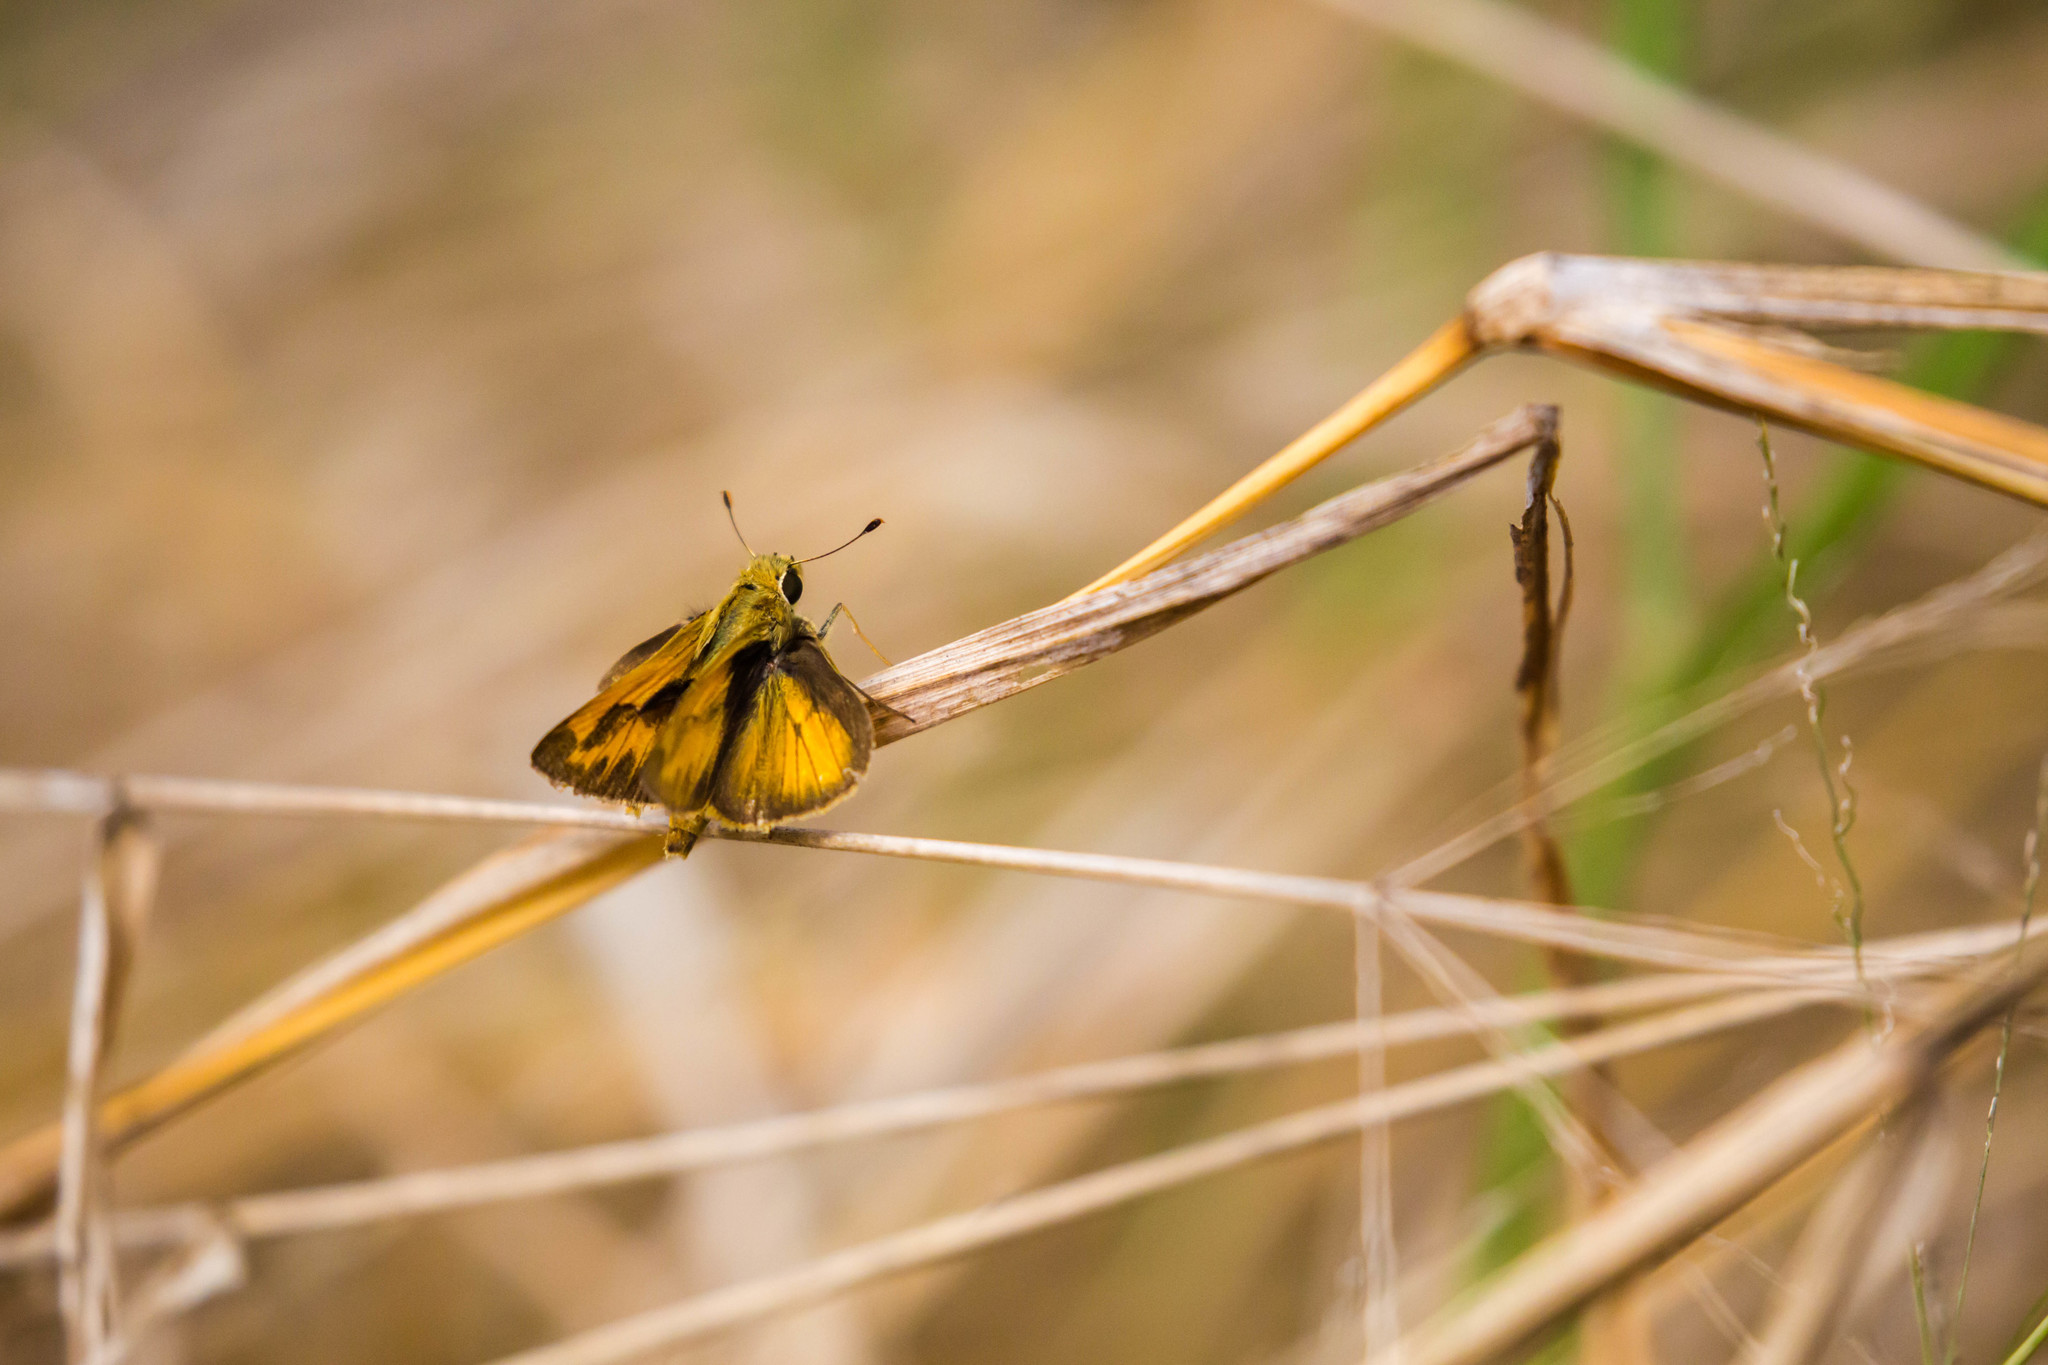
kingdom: Animalia
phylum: Arthropoda
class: Insecta
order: Lepidoptera
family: Hesperiidae
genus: Polites
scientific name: Polites vibex
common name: Whirlabout
